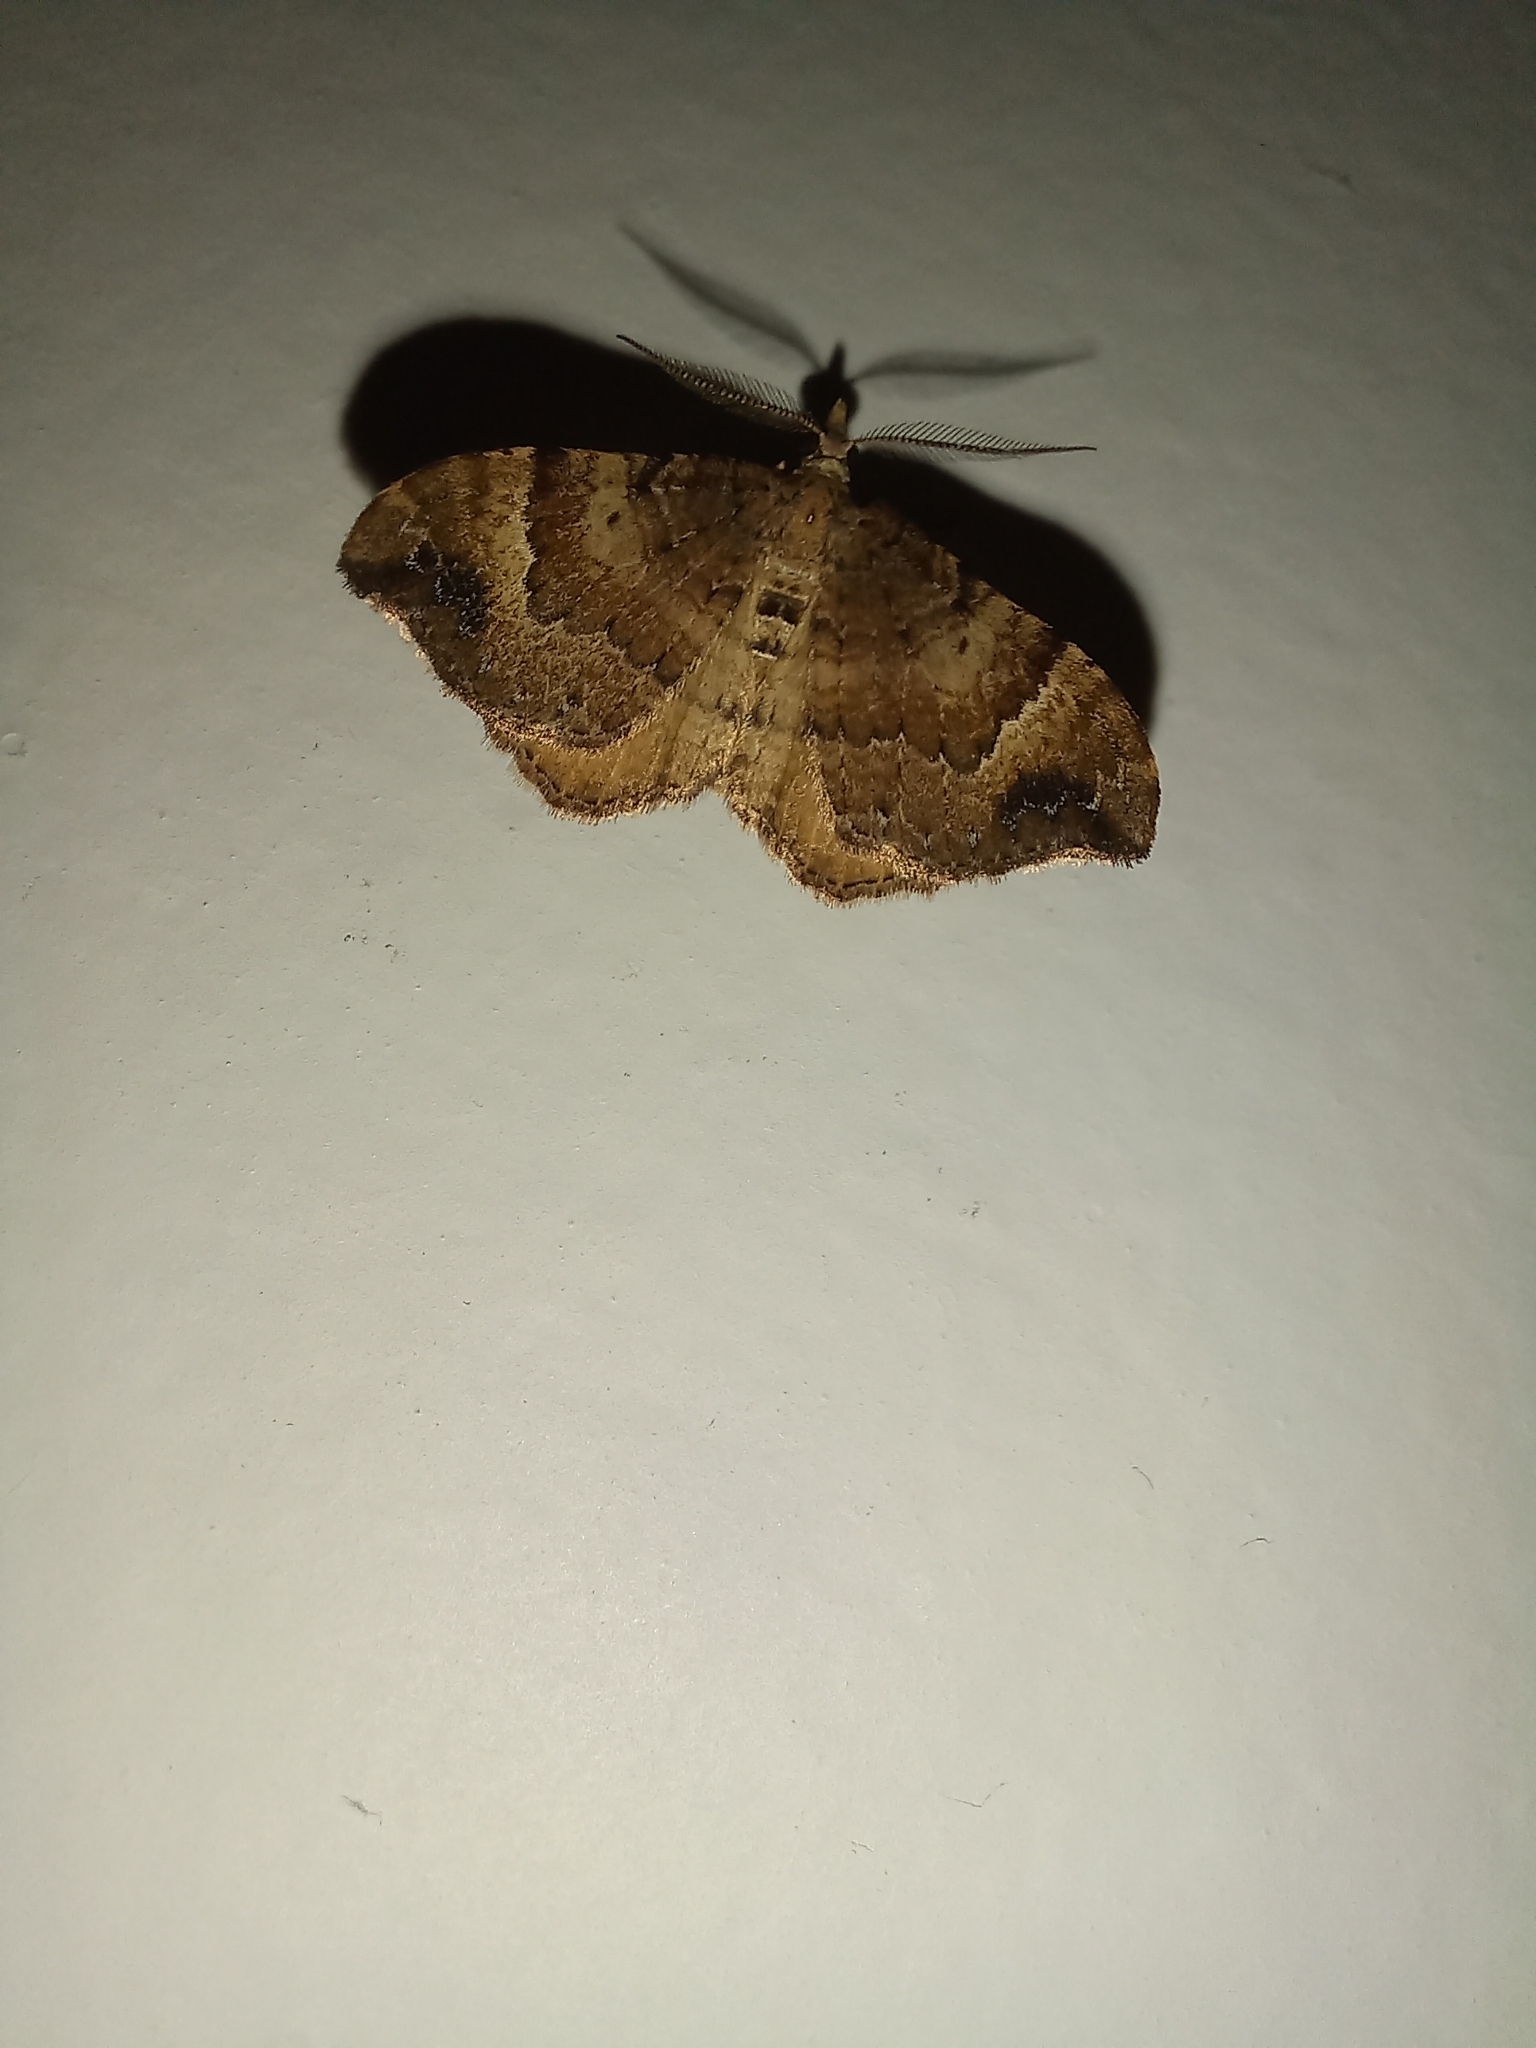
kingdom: Animalia
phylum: Arthropoda
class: Insecta
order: Lepidoptera
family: Geometridae
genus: Homodotis
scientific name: Homodotis megaspilata
